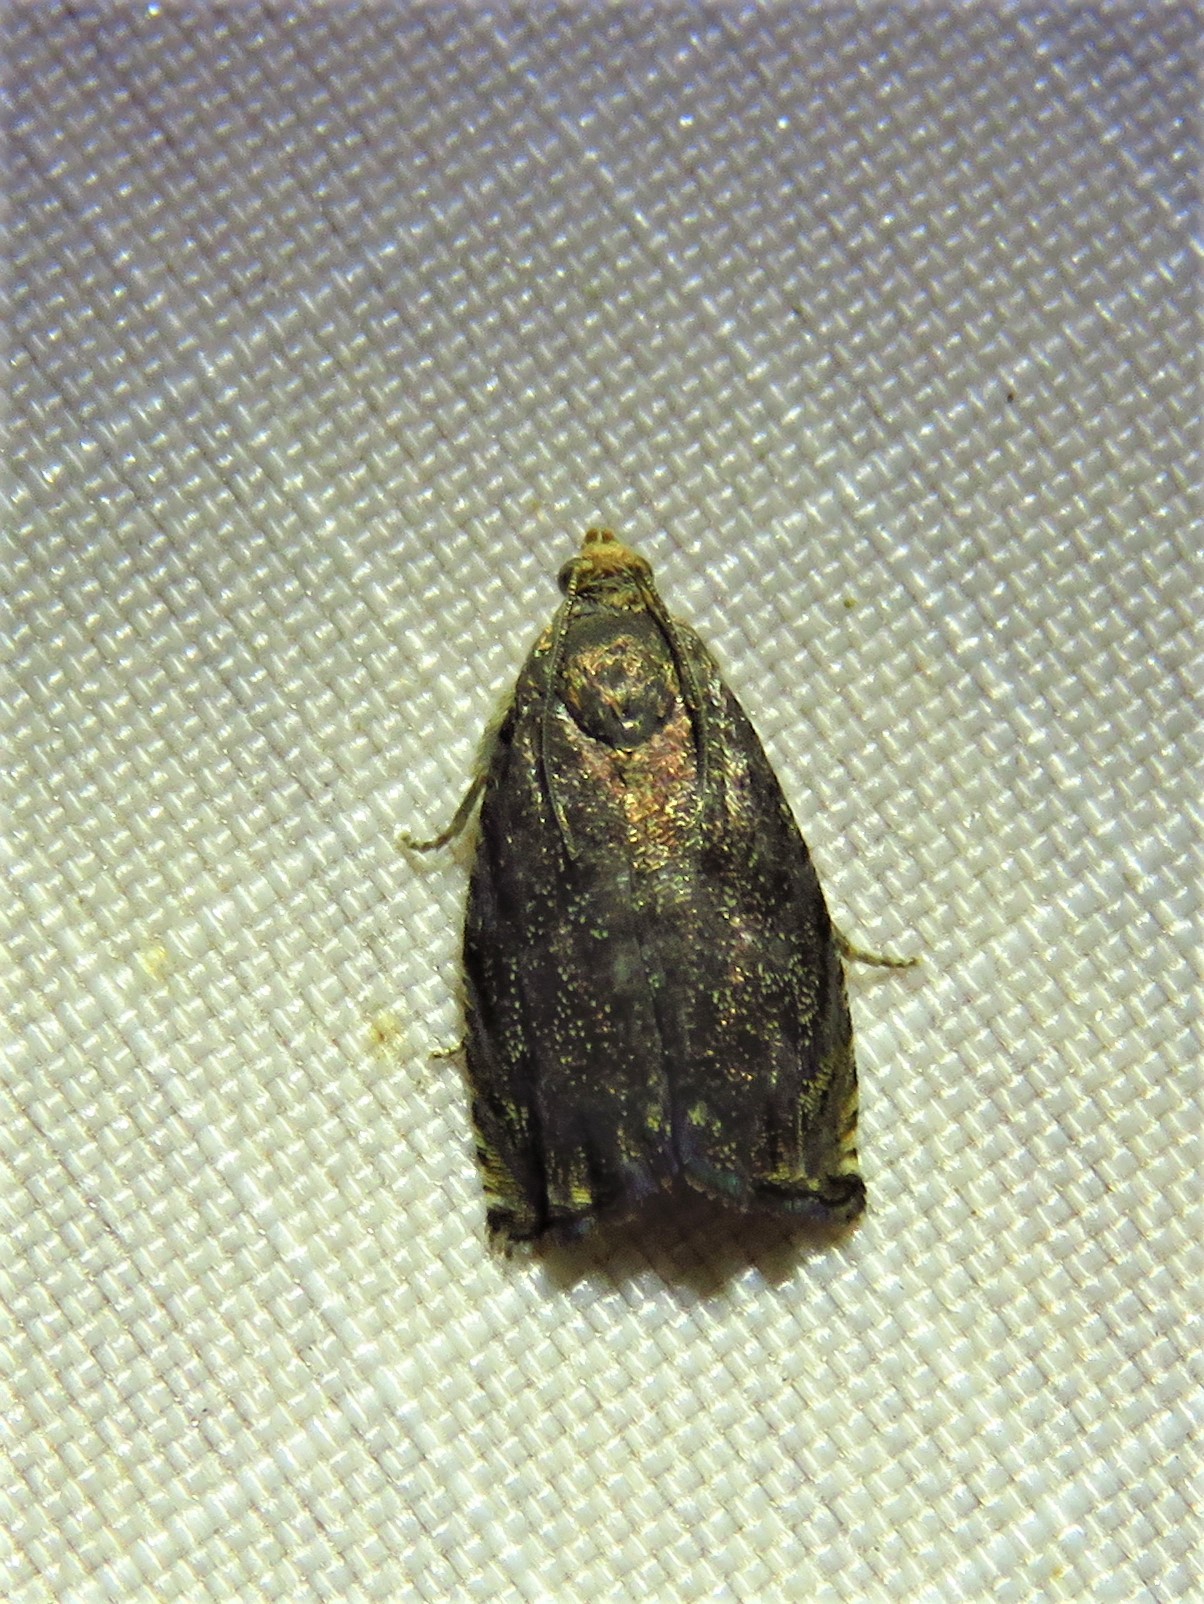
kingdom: Animalia
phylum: Arthropoda
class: Insecta
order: Lepidoptera
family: Tortricidae
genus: Cydia
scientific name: Cydia caryana
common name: Hickory shuckworm moth
